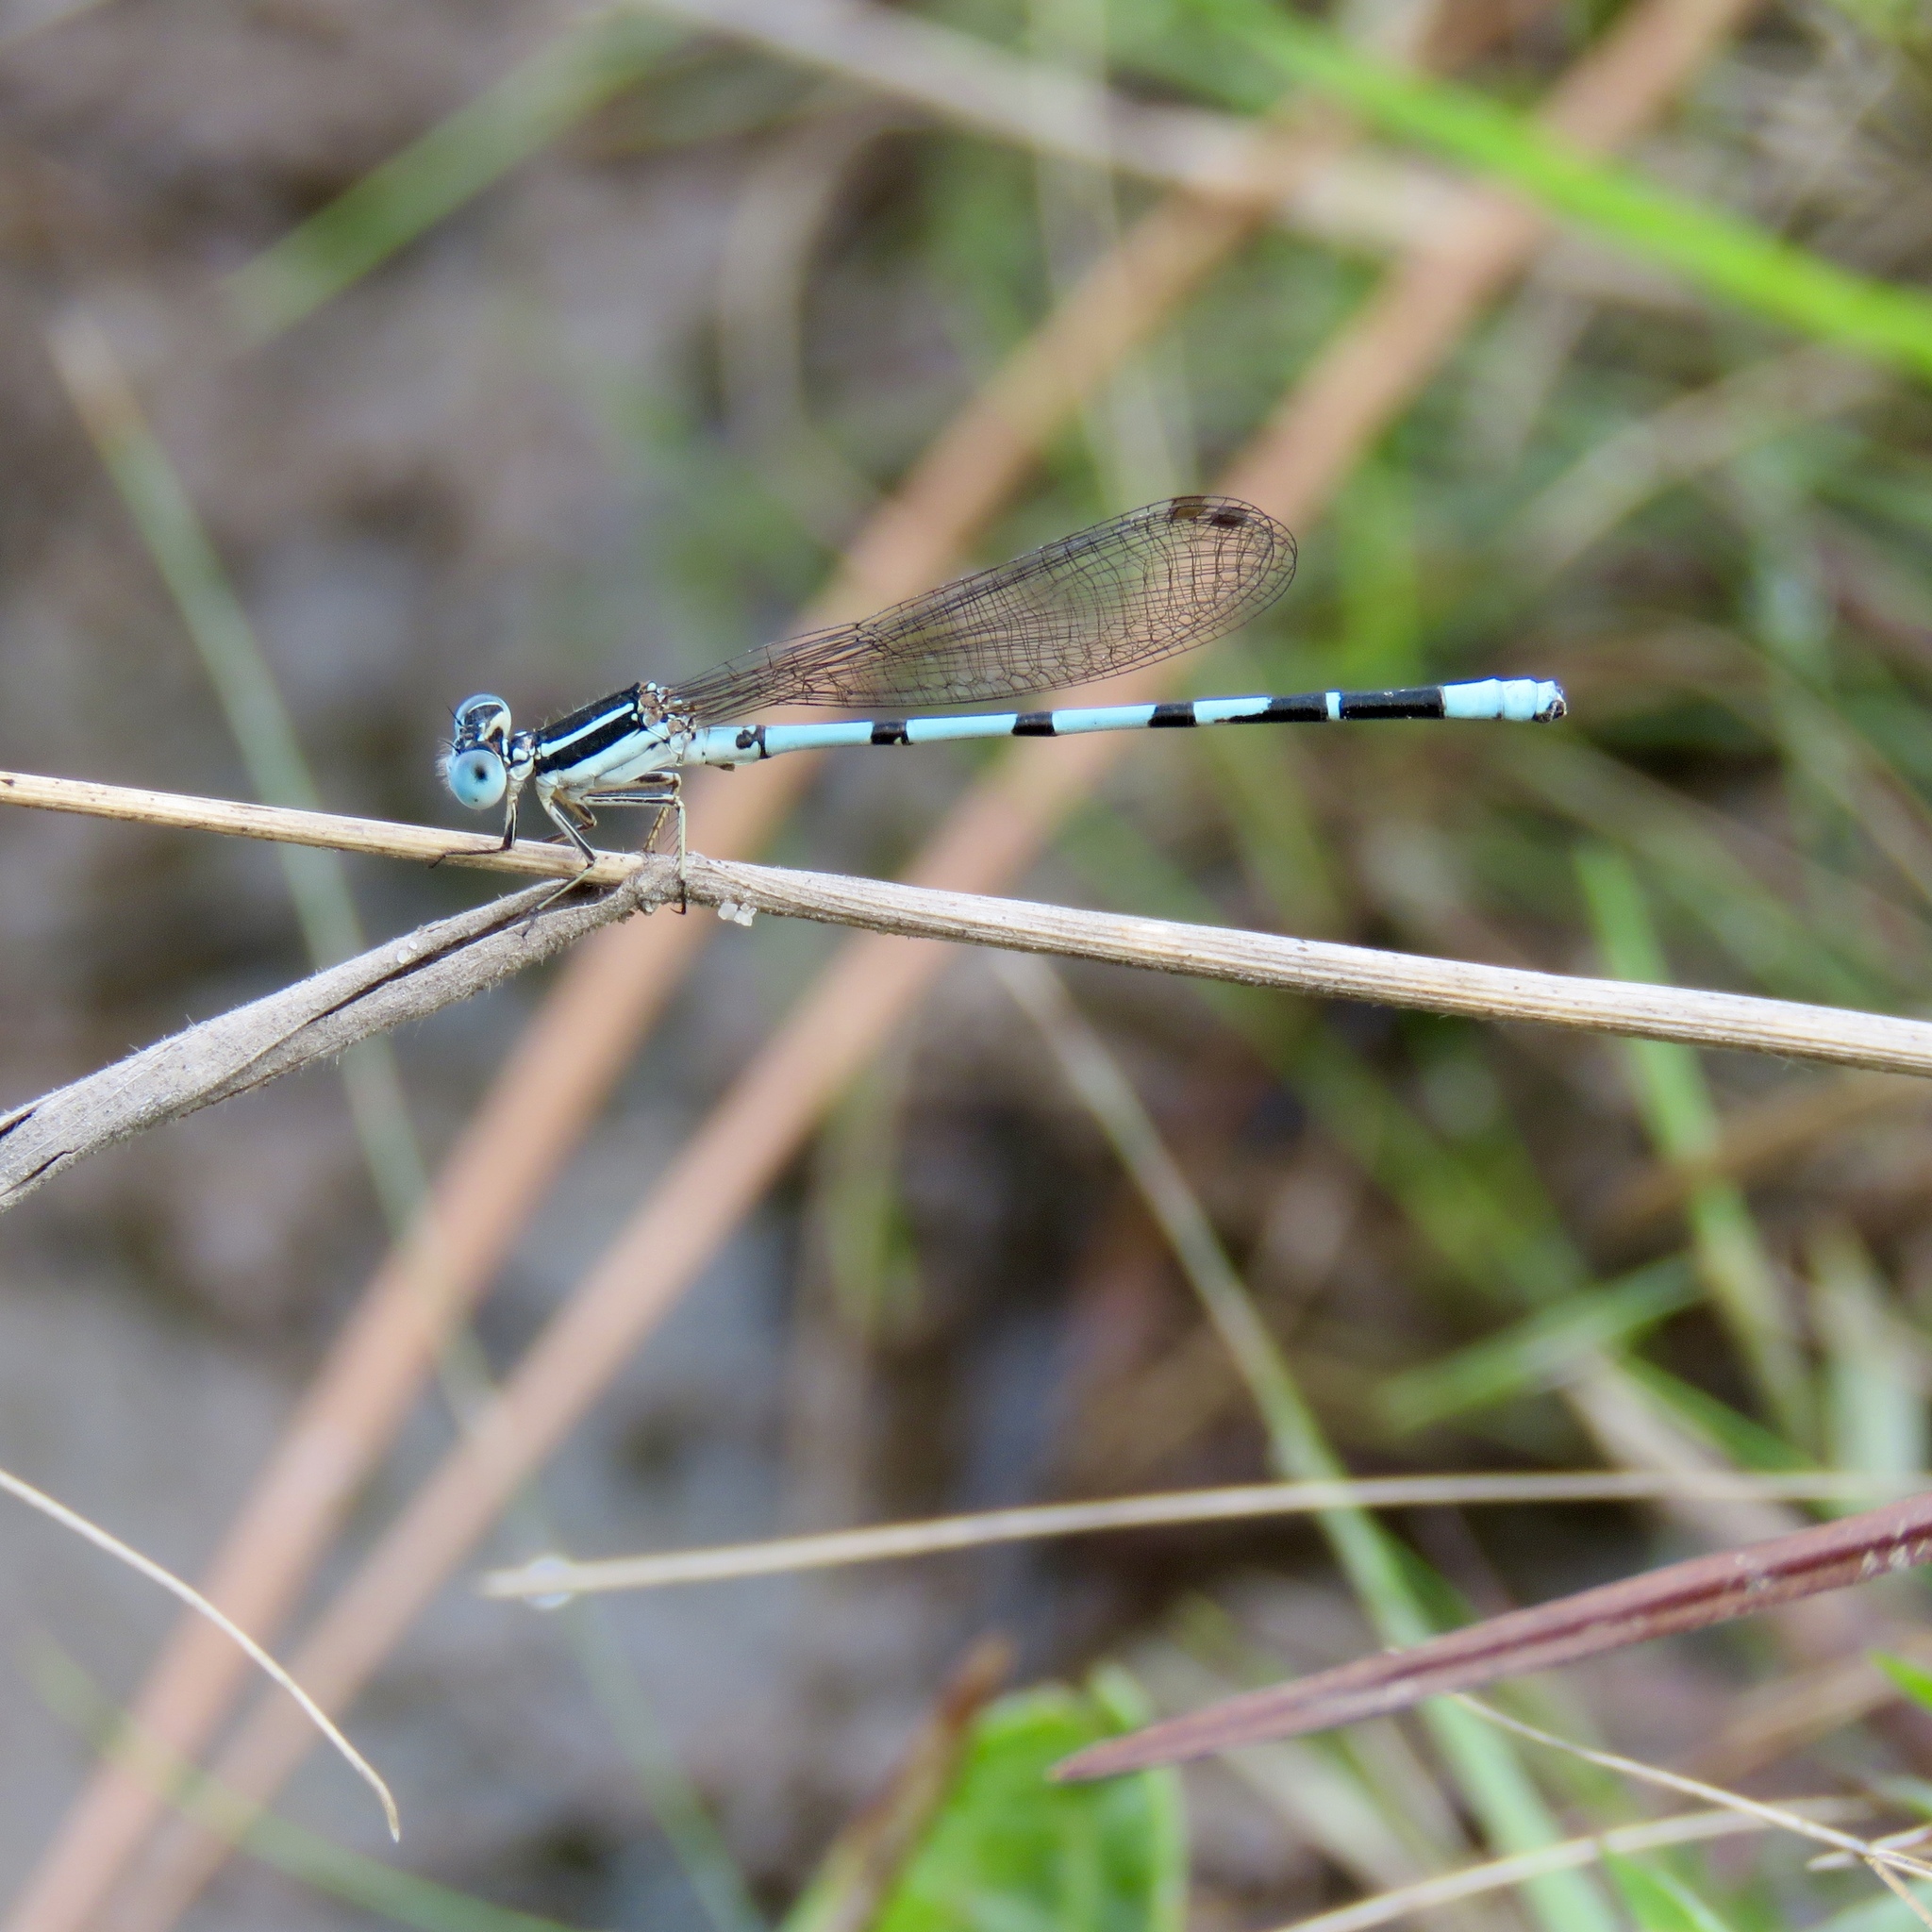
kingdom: Animalia
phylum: Arthropoda
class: Insecta
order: Odonata
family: Coenagrionidae
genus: Argia
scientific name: Argia bipunctulata
